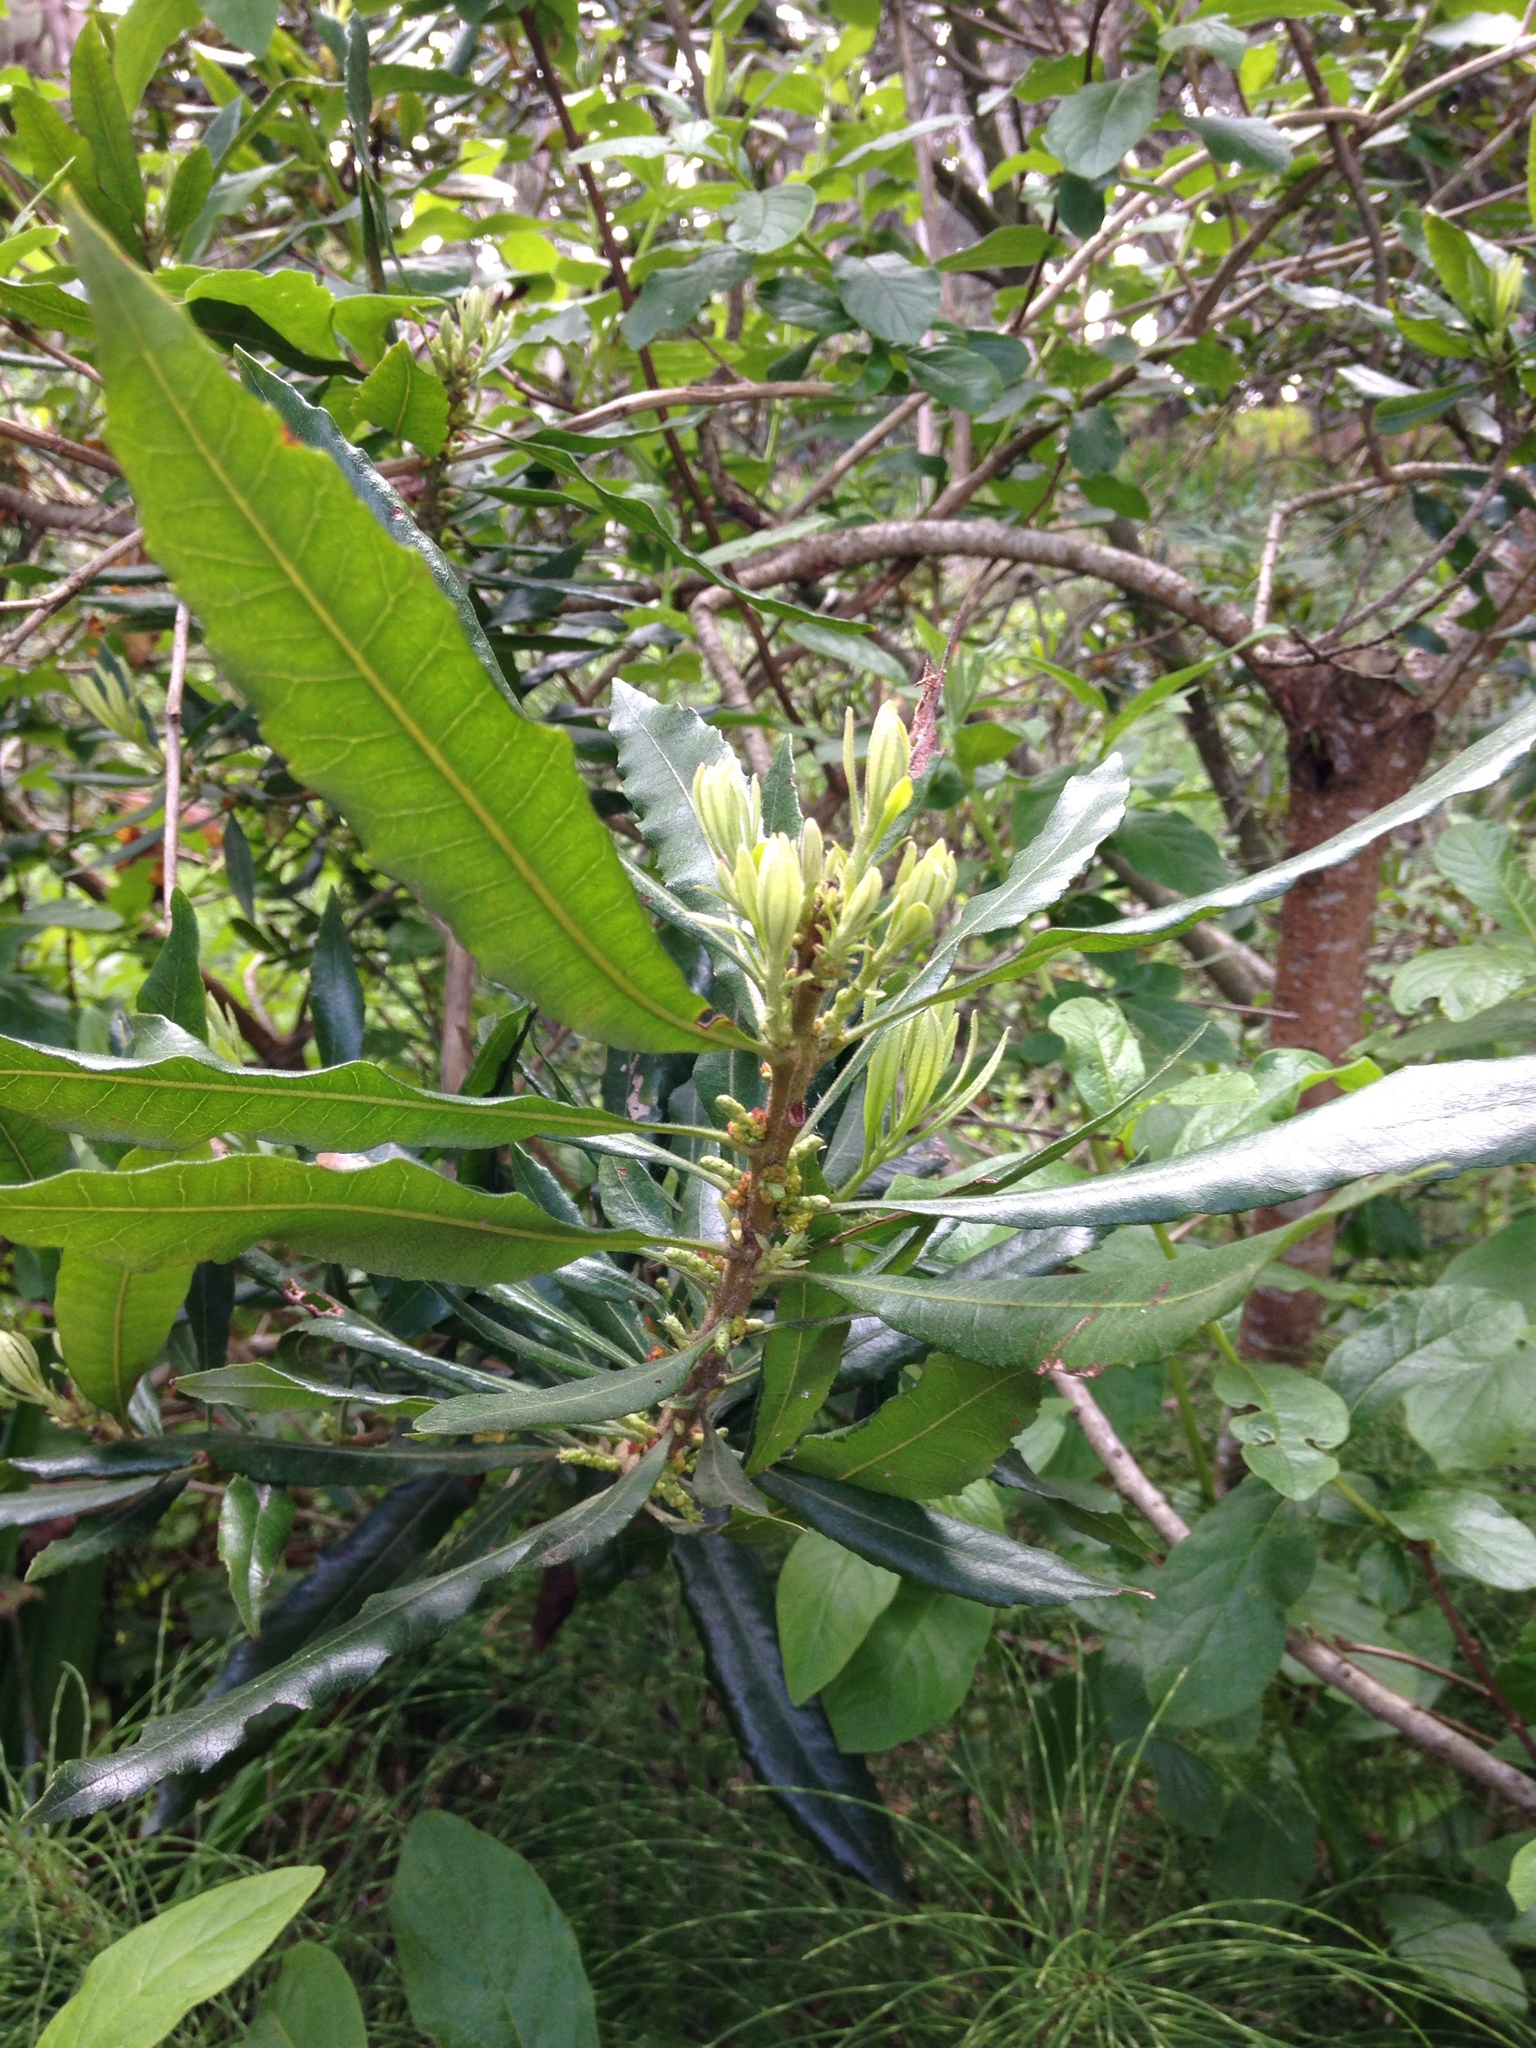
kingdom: Plantae
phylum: Tracheophyta
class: Magnoliopsida
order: Fagales
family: Myricaceae
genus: Morella
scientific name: Morella californica
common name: California wax-myrtle
